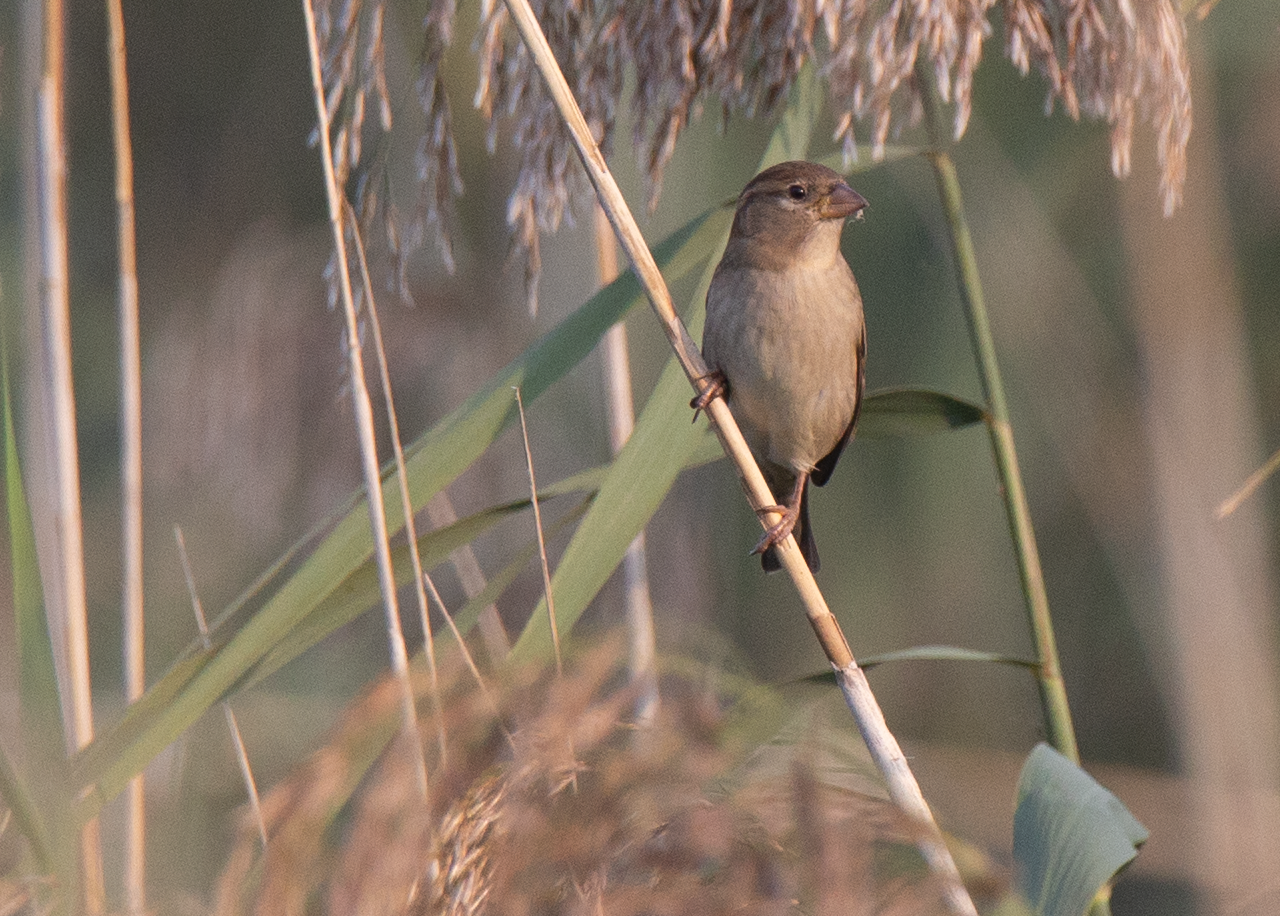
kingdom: Animalia
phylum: Chordata
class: Aves
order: Passeriformes
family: Passeridae
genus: Passer
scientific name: Passer italiae
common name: Italian sparrow
